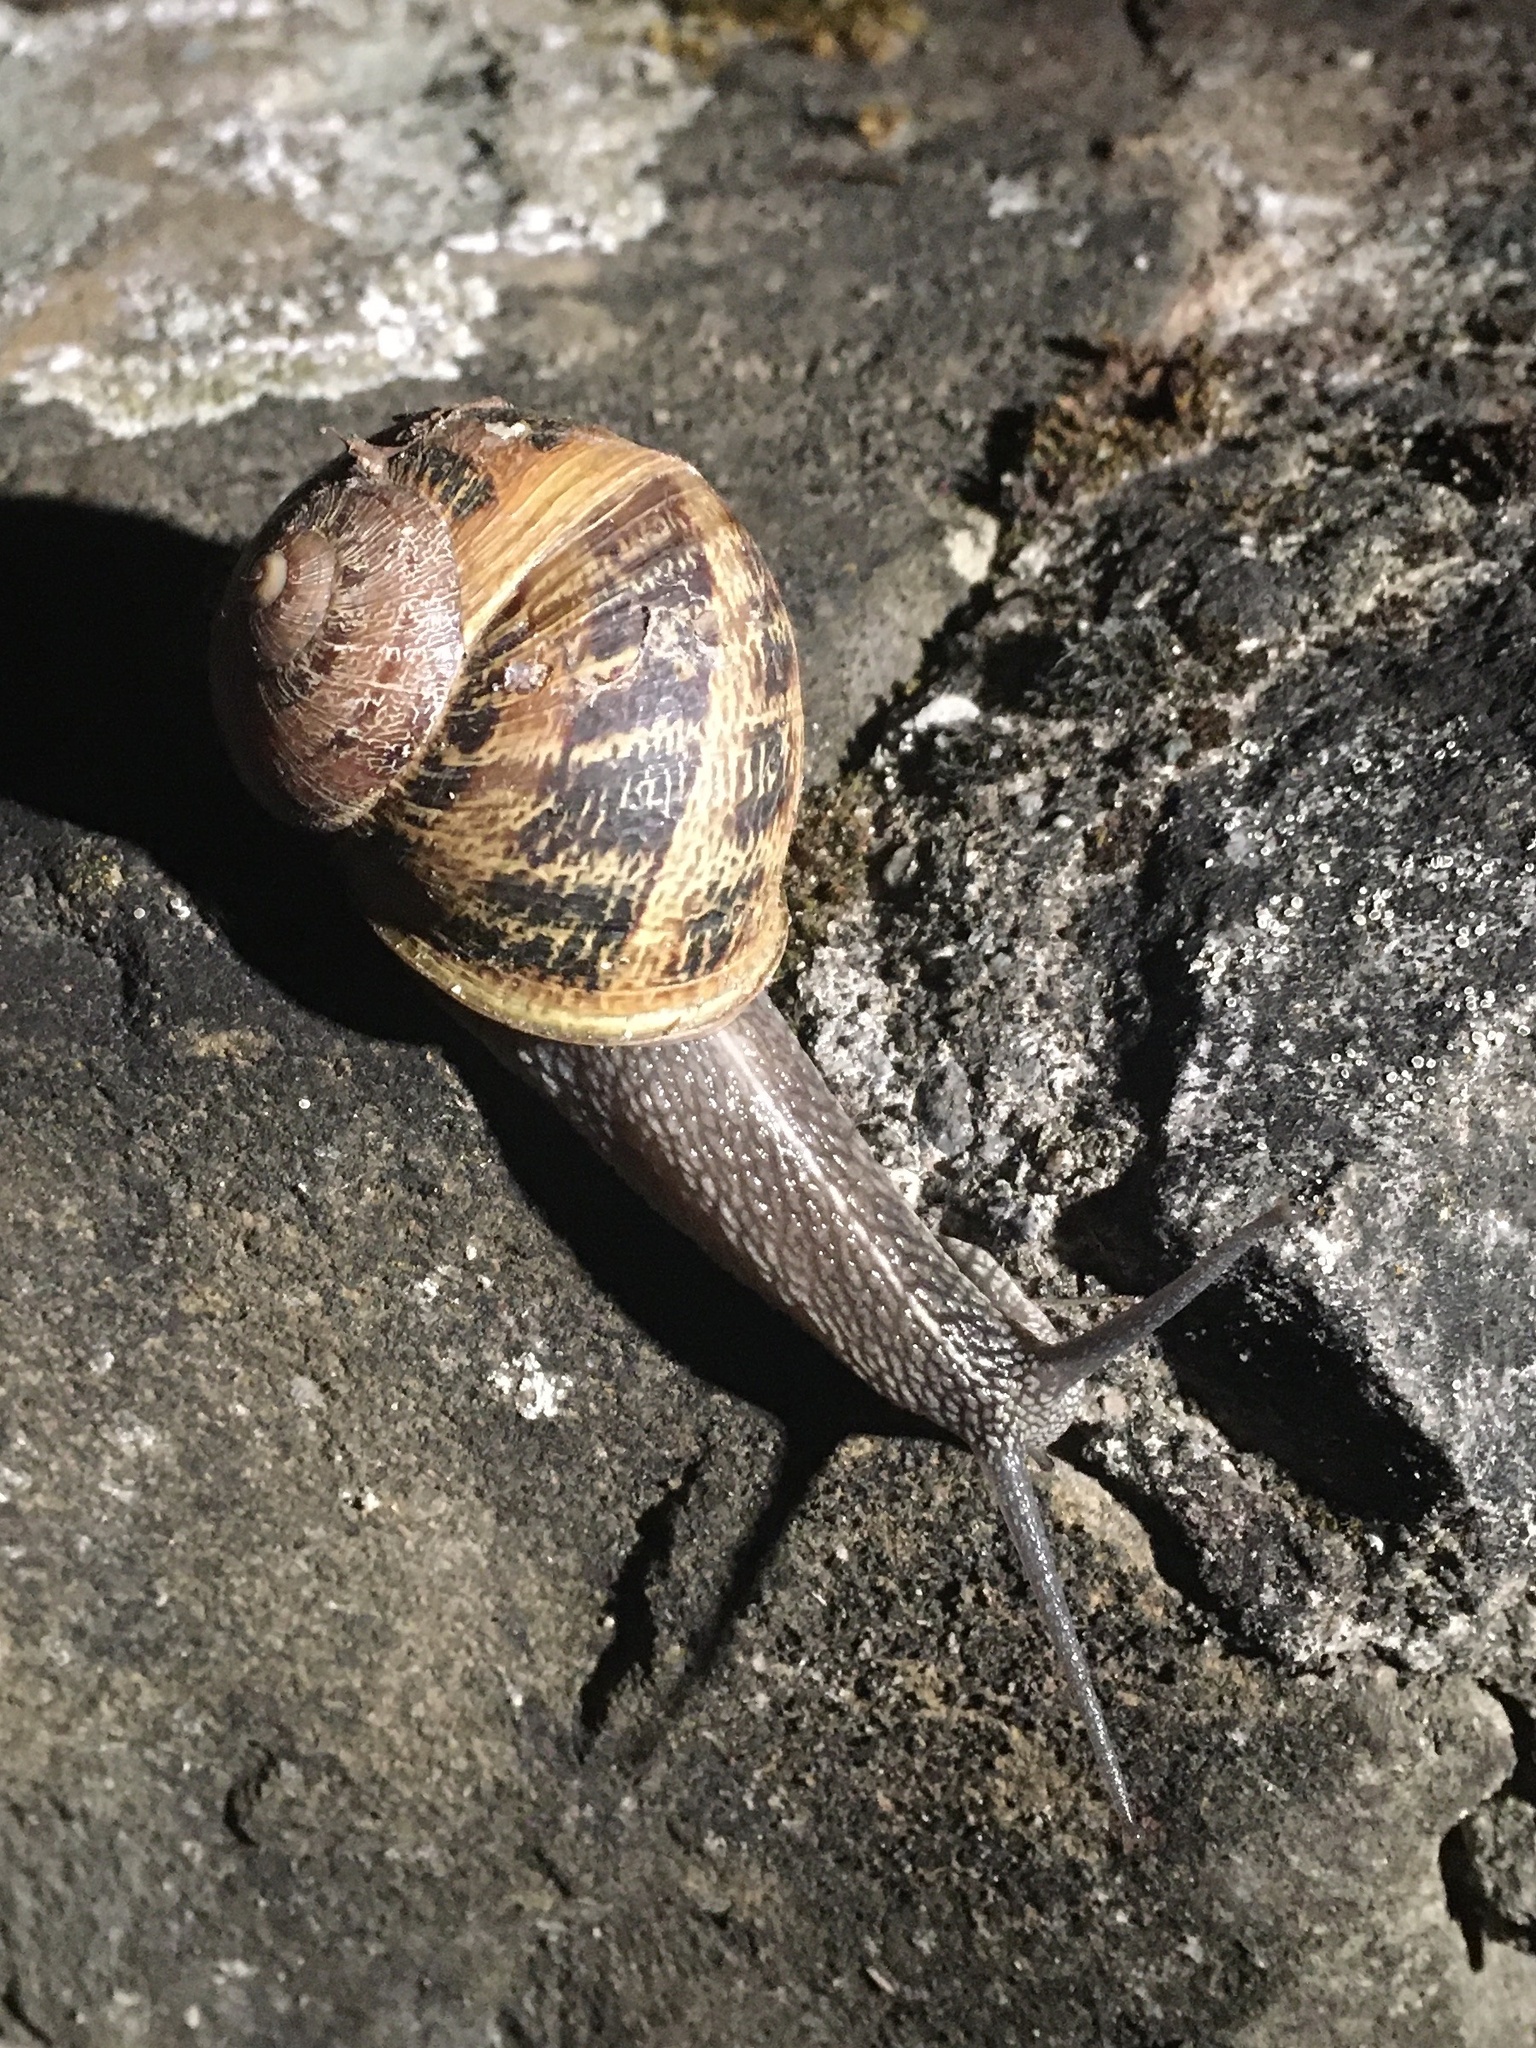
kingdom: Animalia
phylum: Mollusca
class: Gastropoda
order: Stylommatophora
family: Helicidae
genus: Cornu
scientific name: Cornu aspersum
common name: Brown garden snail
